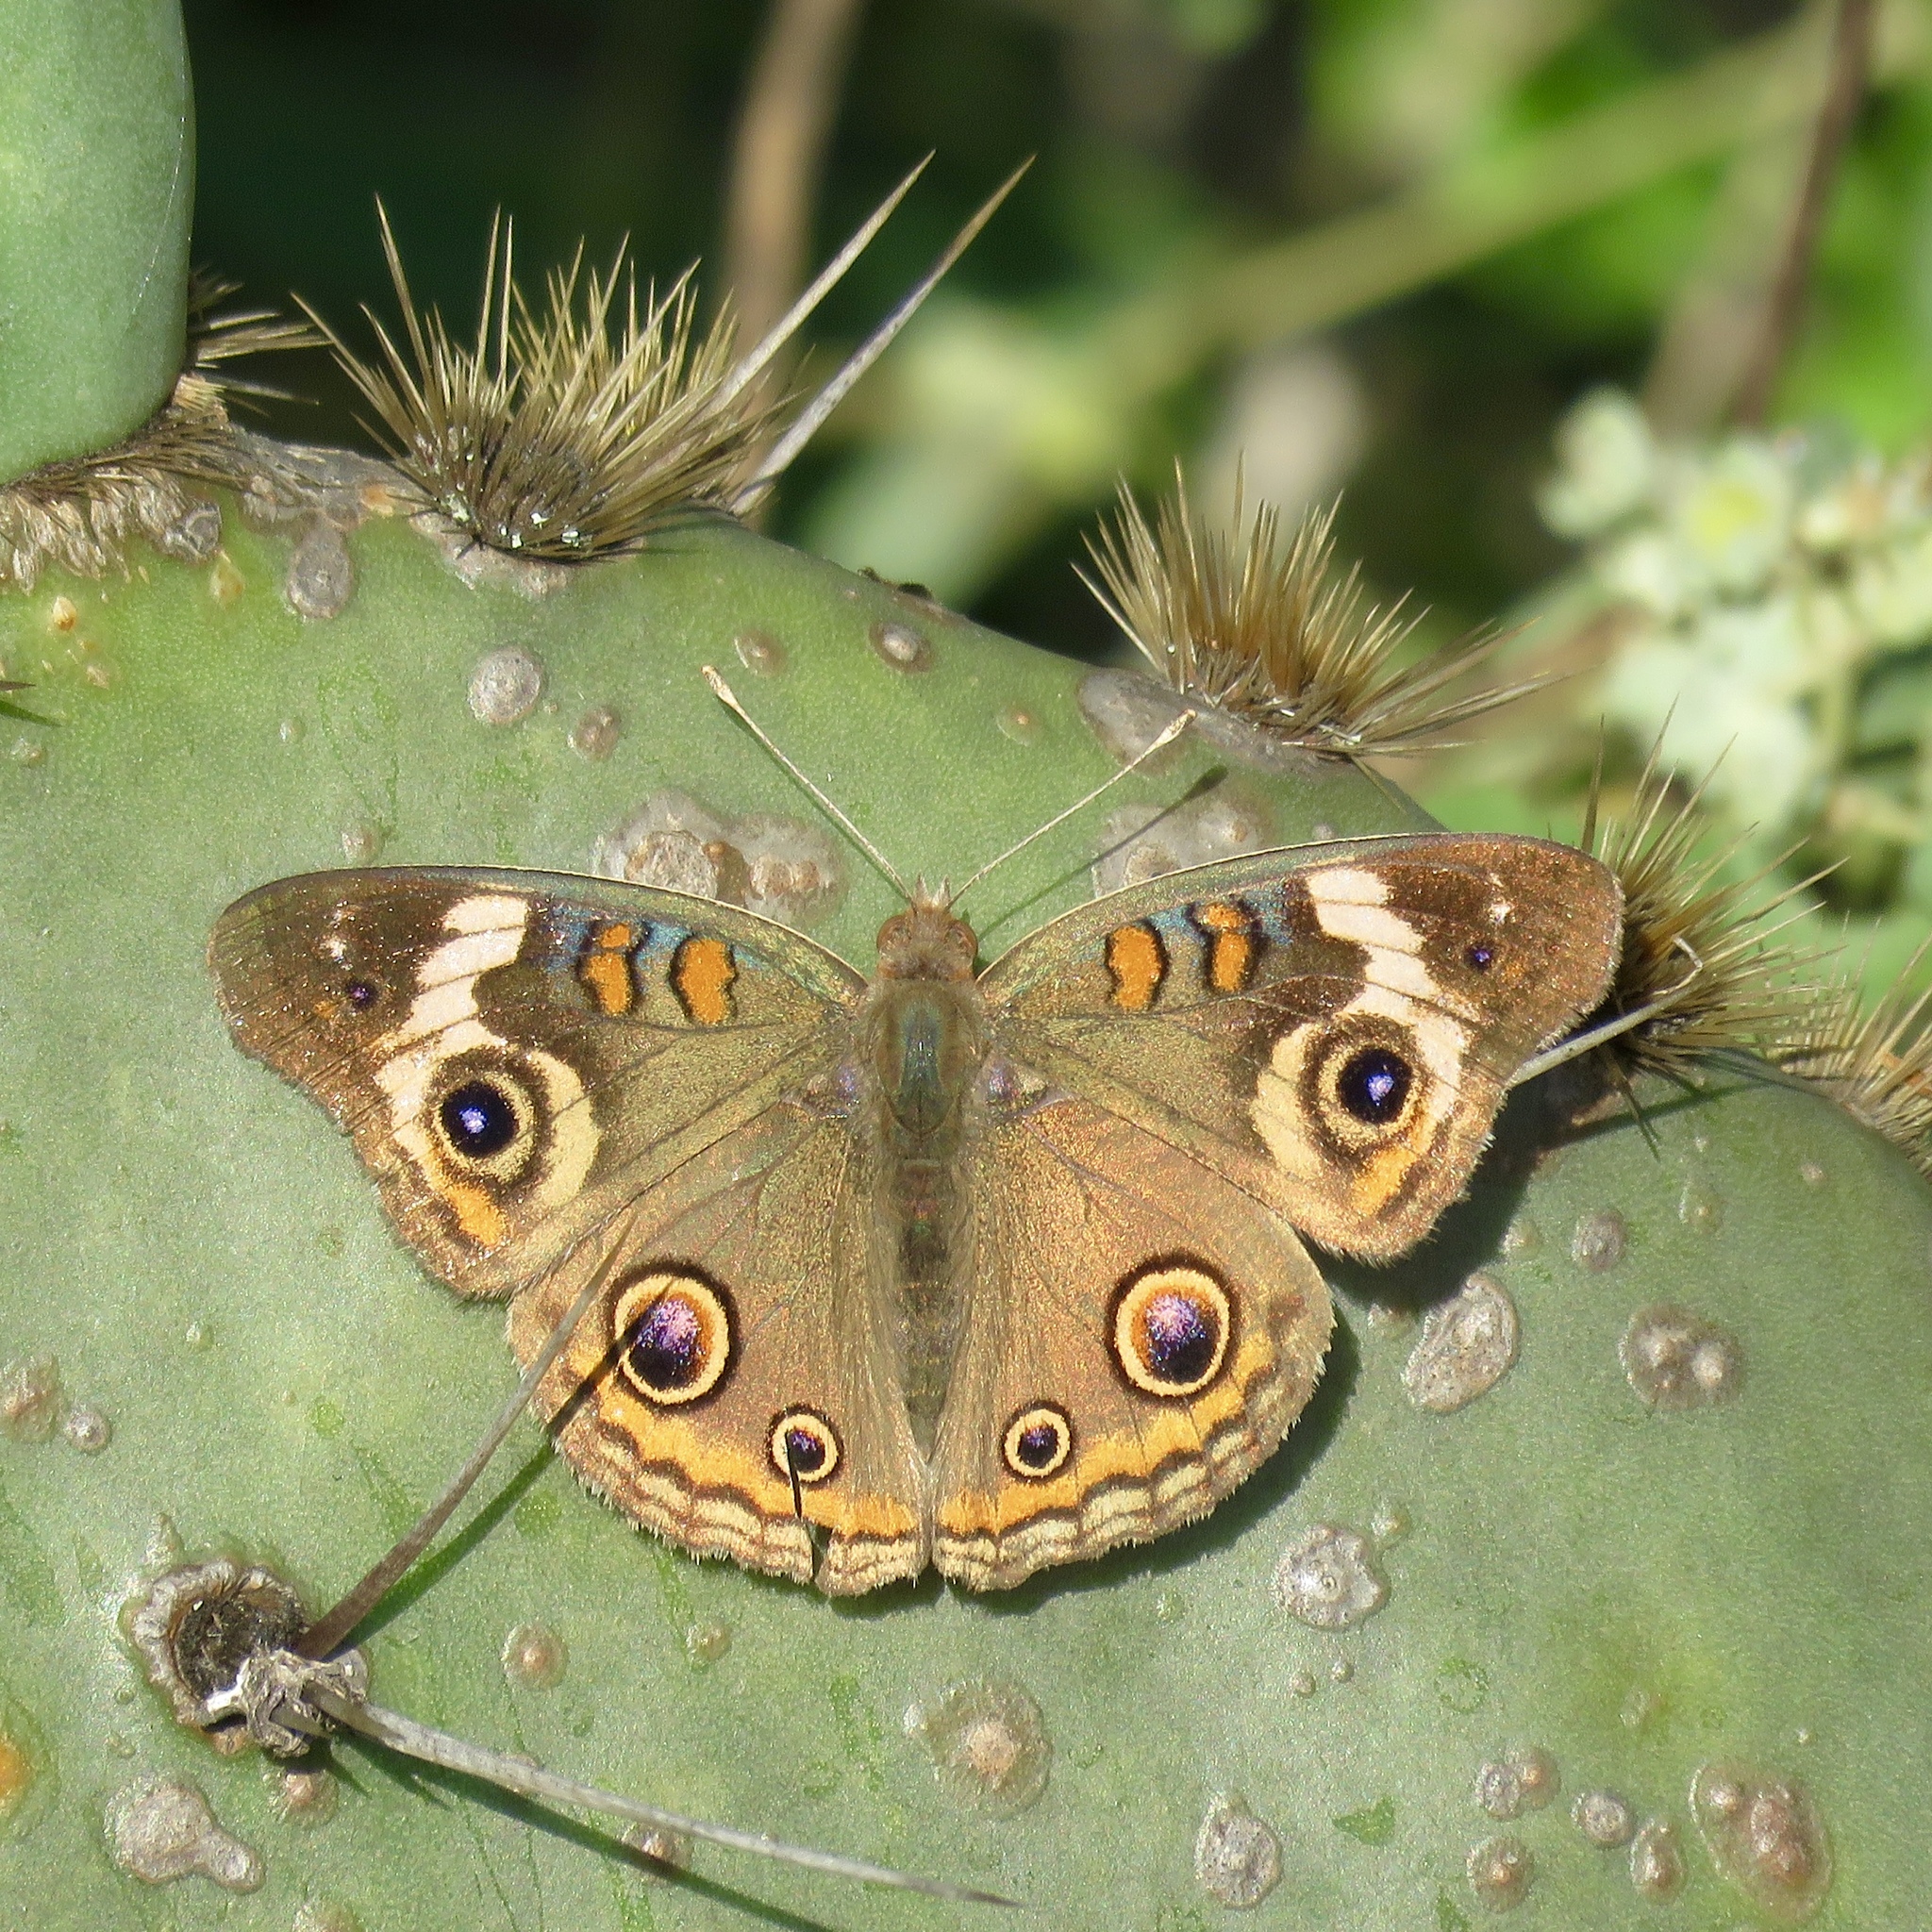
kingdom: Animalia
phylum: Arthropoda
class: Insecta
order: Lepidoptera
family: Nymphalidae
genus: Junonia
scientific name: Junonia coenia
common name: Common buckeye
